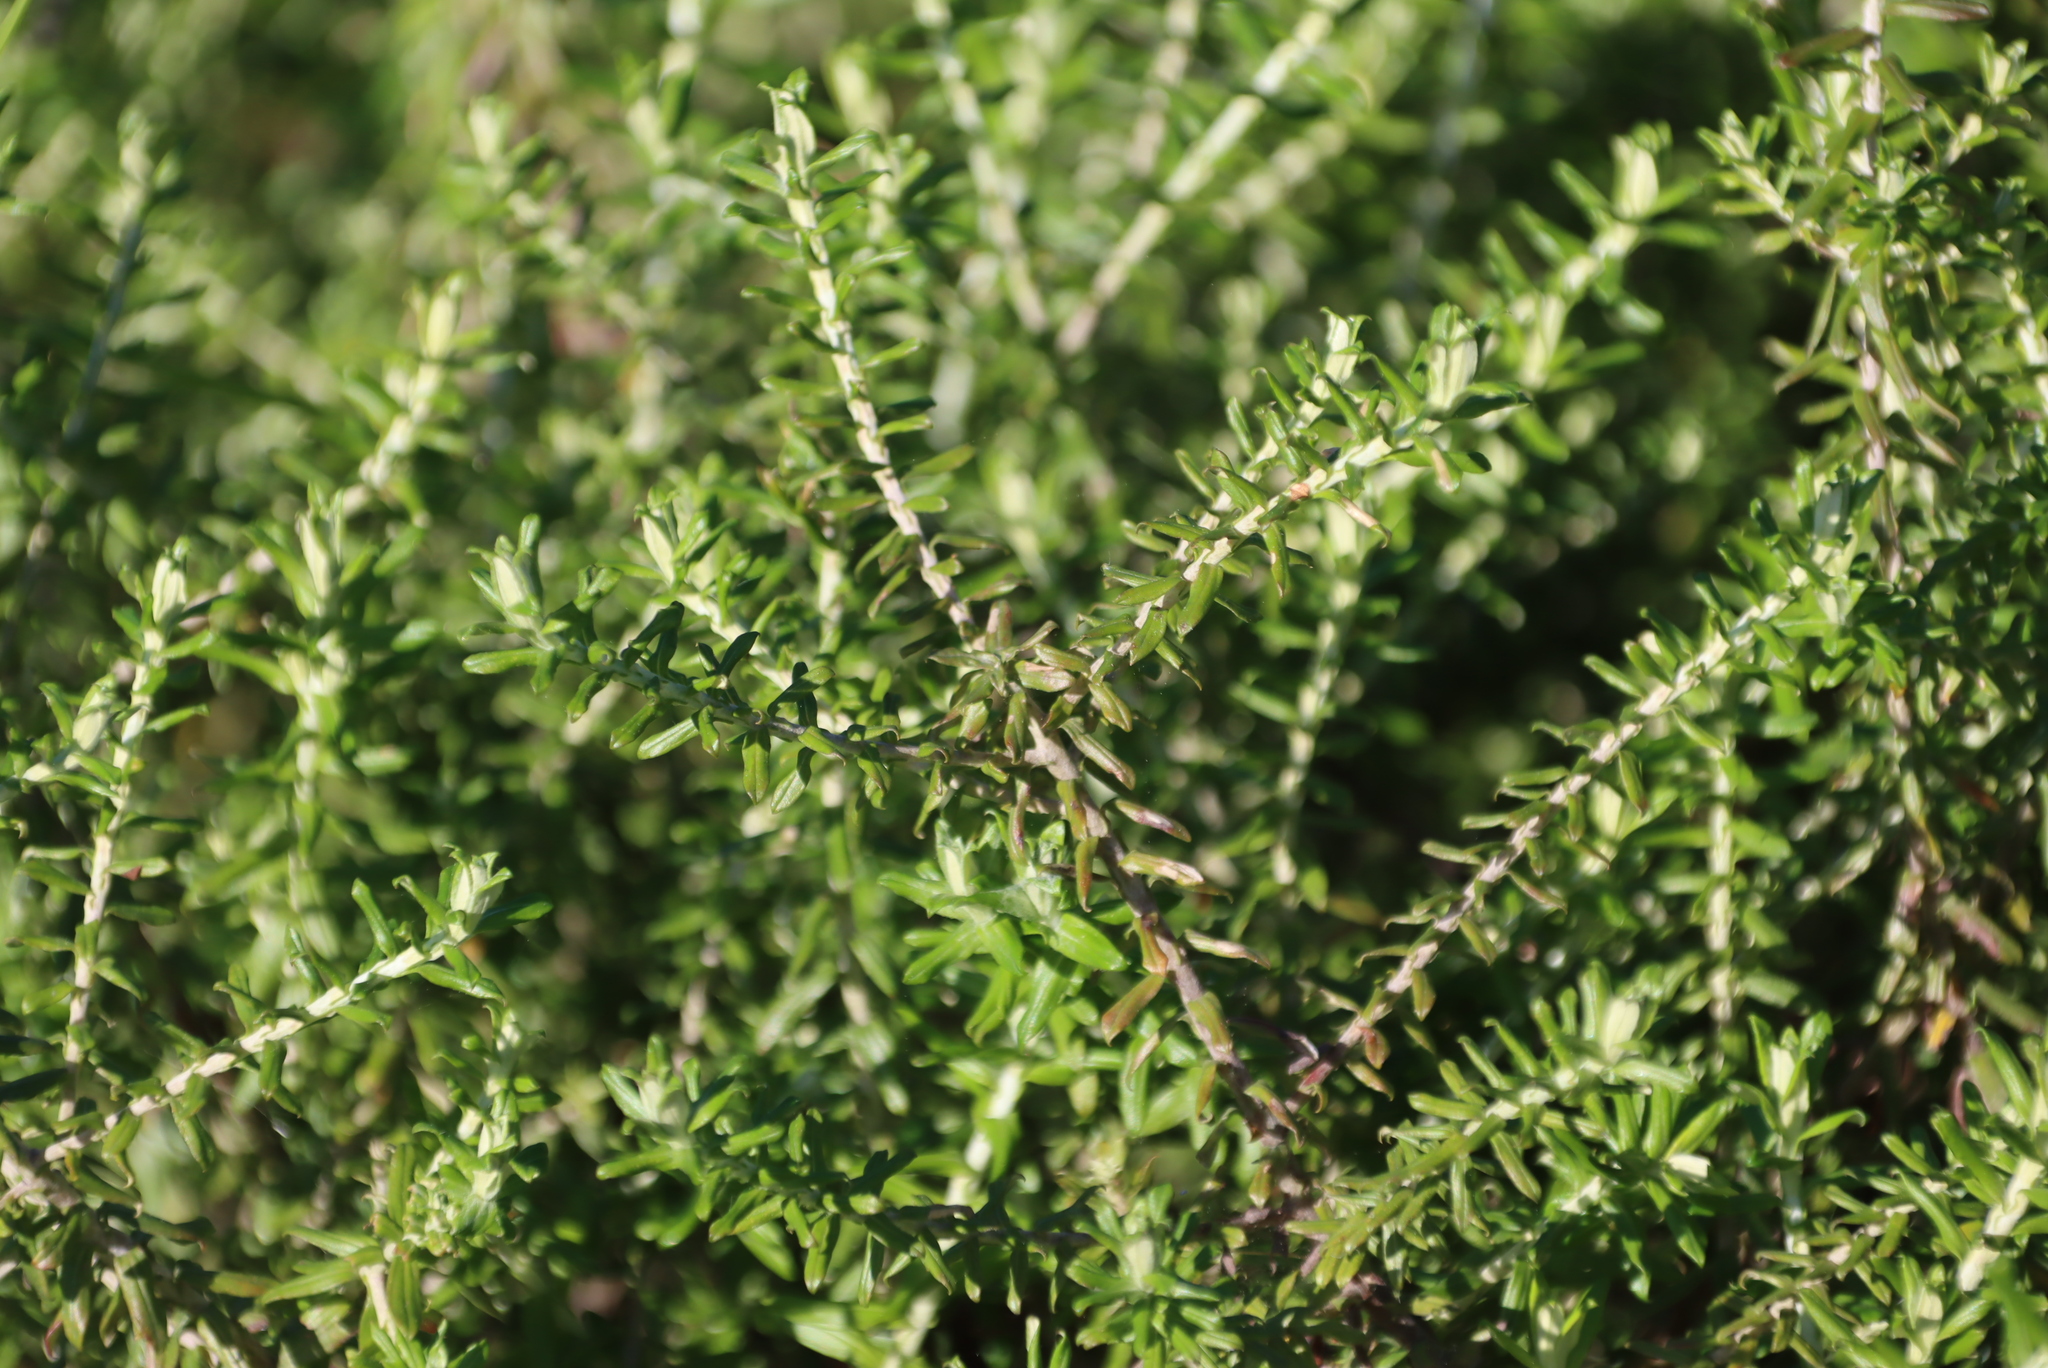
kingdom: Plantae
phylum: Tracheophyta
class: Magnoliopsida
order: Asterales
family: Asteraceae
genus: Helichrysum
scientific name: Helichrysum cymosum
